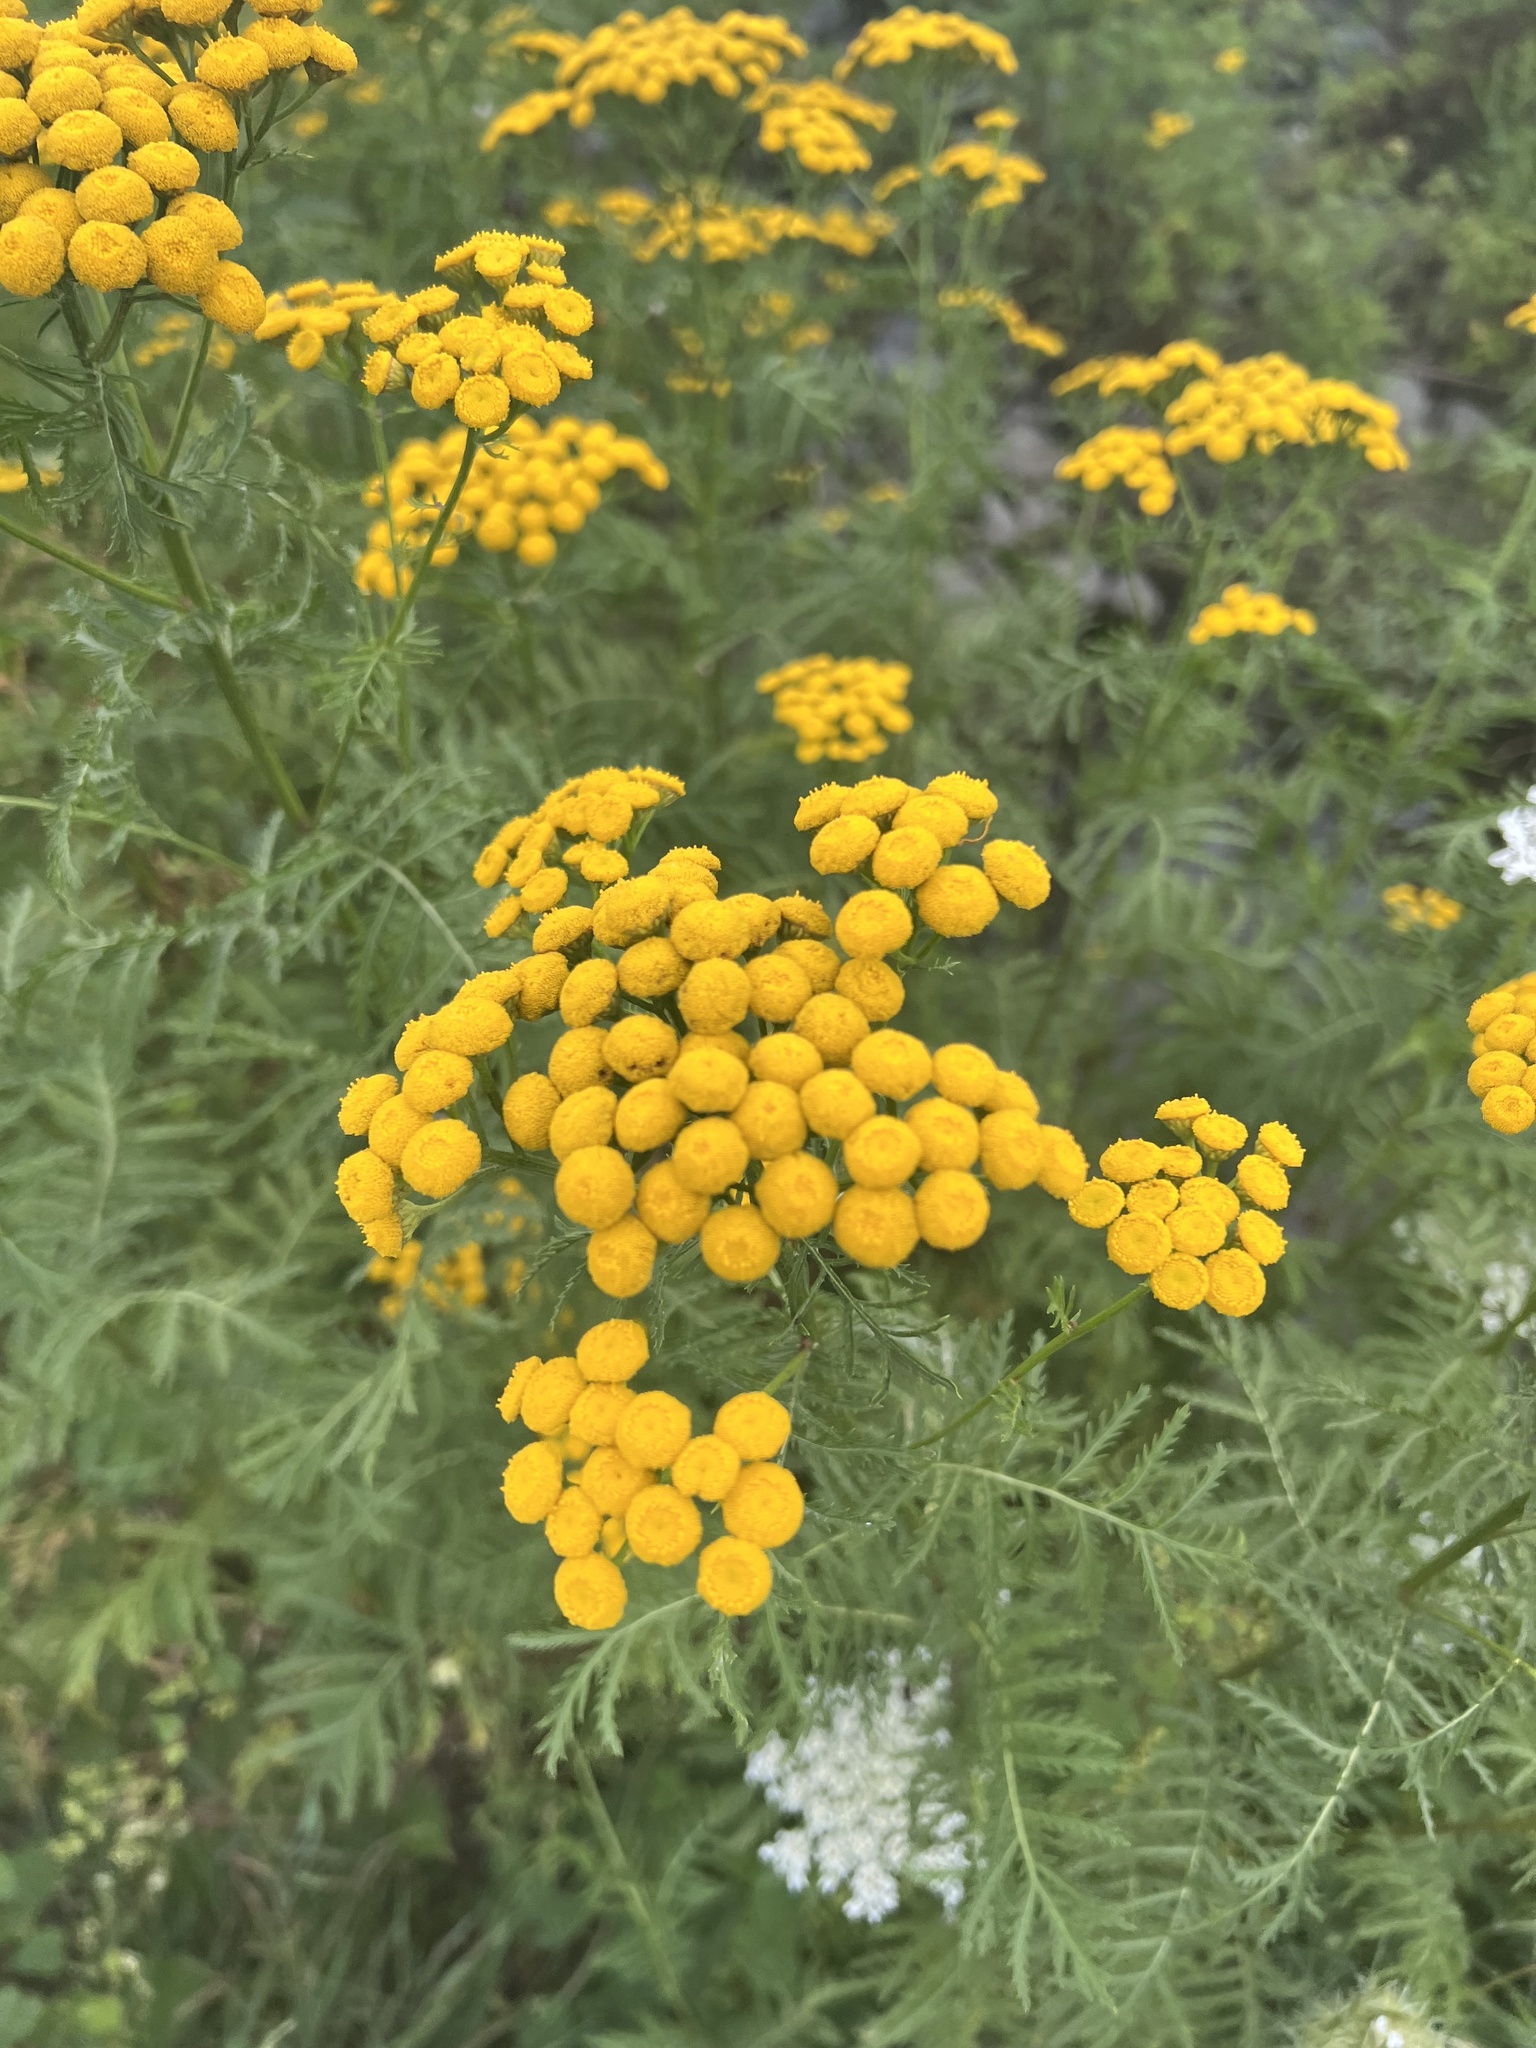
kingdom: Plantae
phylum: Tracheophyta
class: Magnoliopsida
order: Asterales
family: Asteraceae
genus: Tanacetum
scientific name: Tanacetum vulgare
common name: Common tansy
